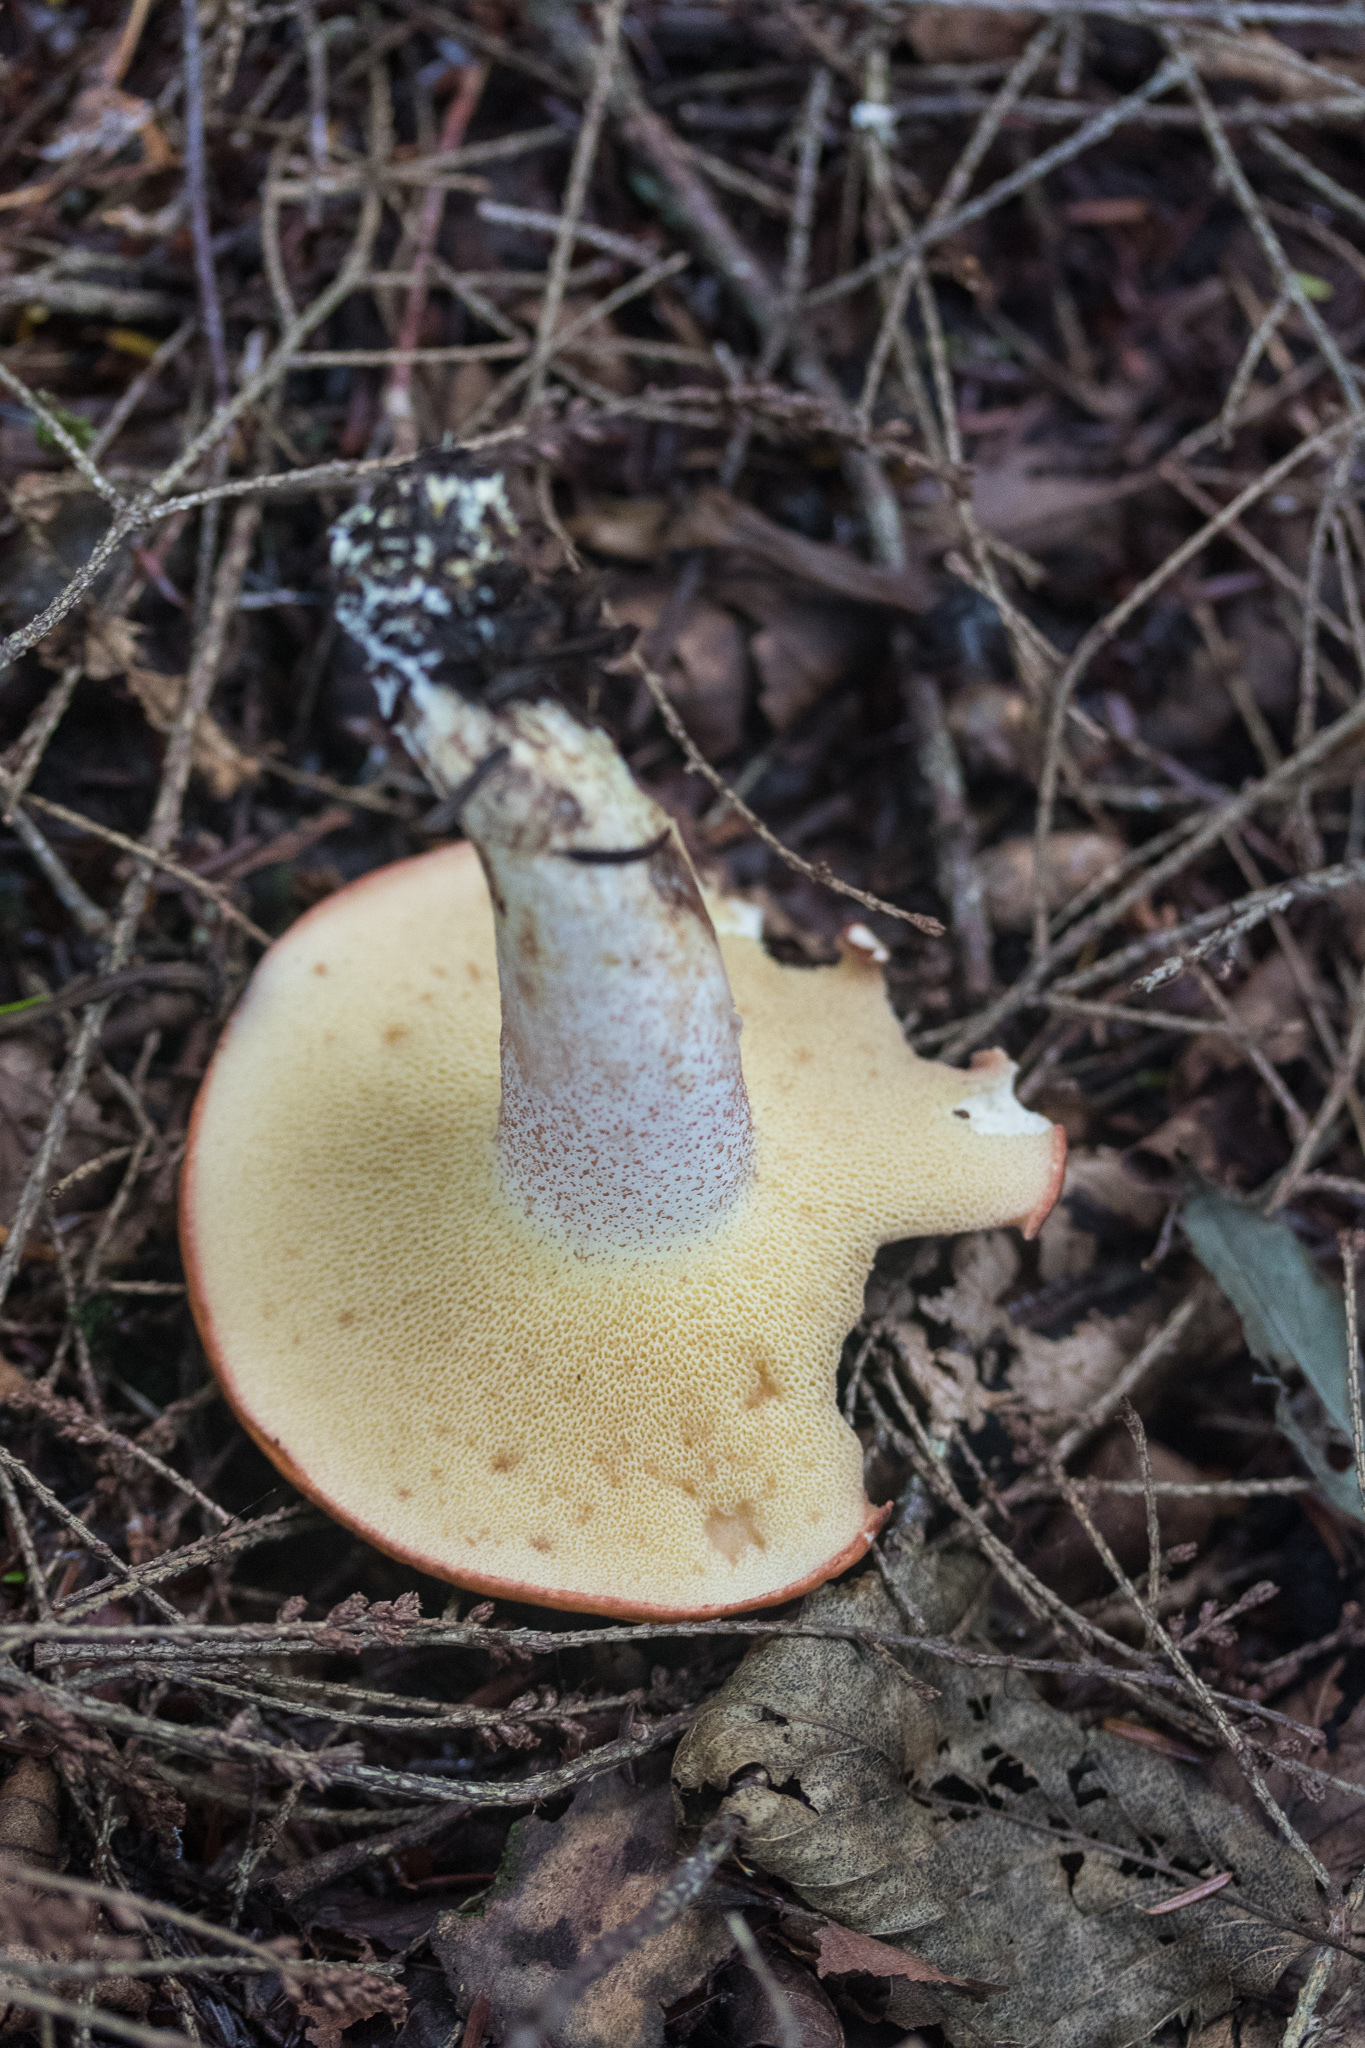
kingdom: Fungi
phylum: Basidiomycota
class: Agaricomycetes
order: Boletales
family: Suillaceae
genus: Suillus
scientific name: Suillus granulatus
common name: Weeping bolete
